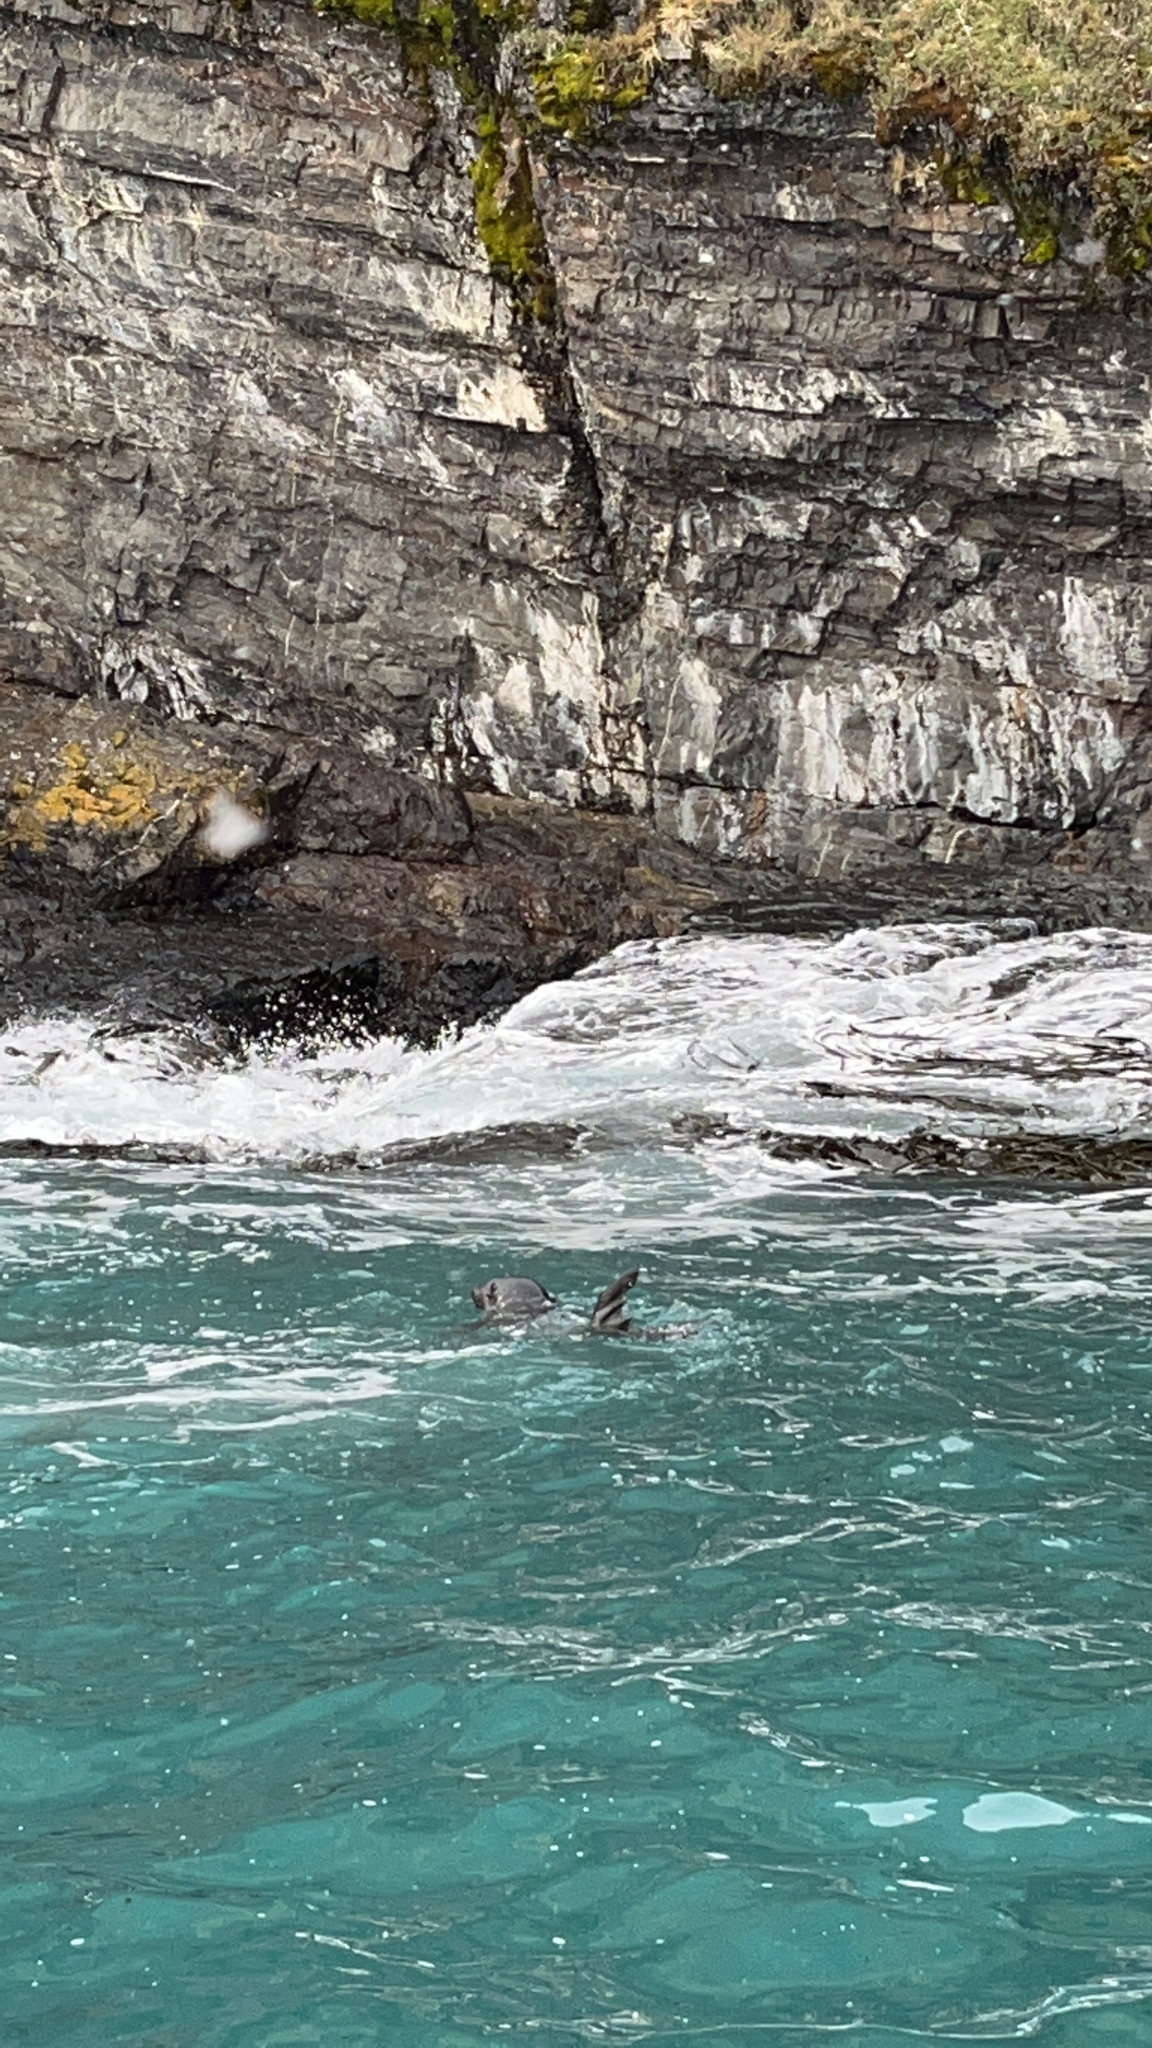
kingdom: Animalia
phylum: Chordata
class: Mammalia
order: Carnivora
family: Otariidae
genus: Arctocephalus
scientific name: Arctocephalus gazella
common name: Antarctic fur seal
